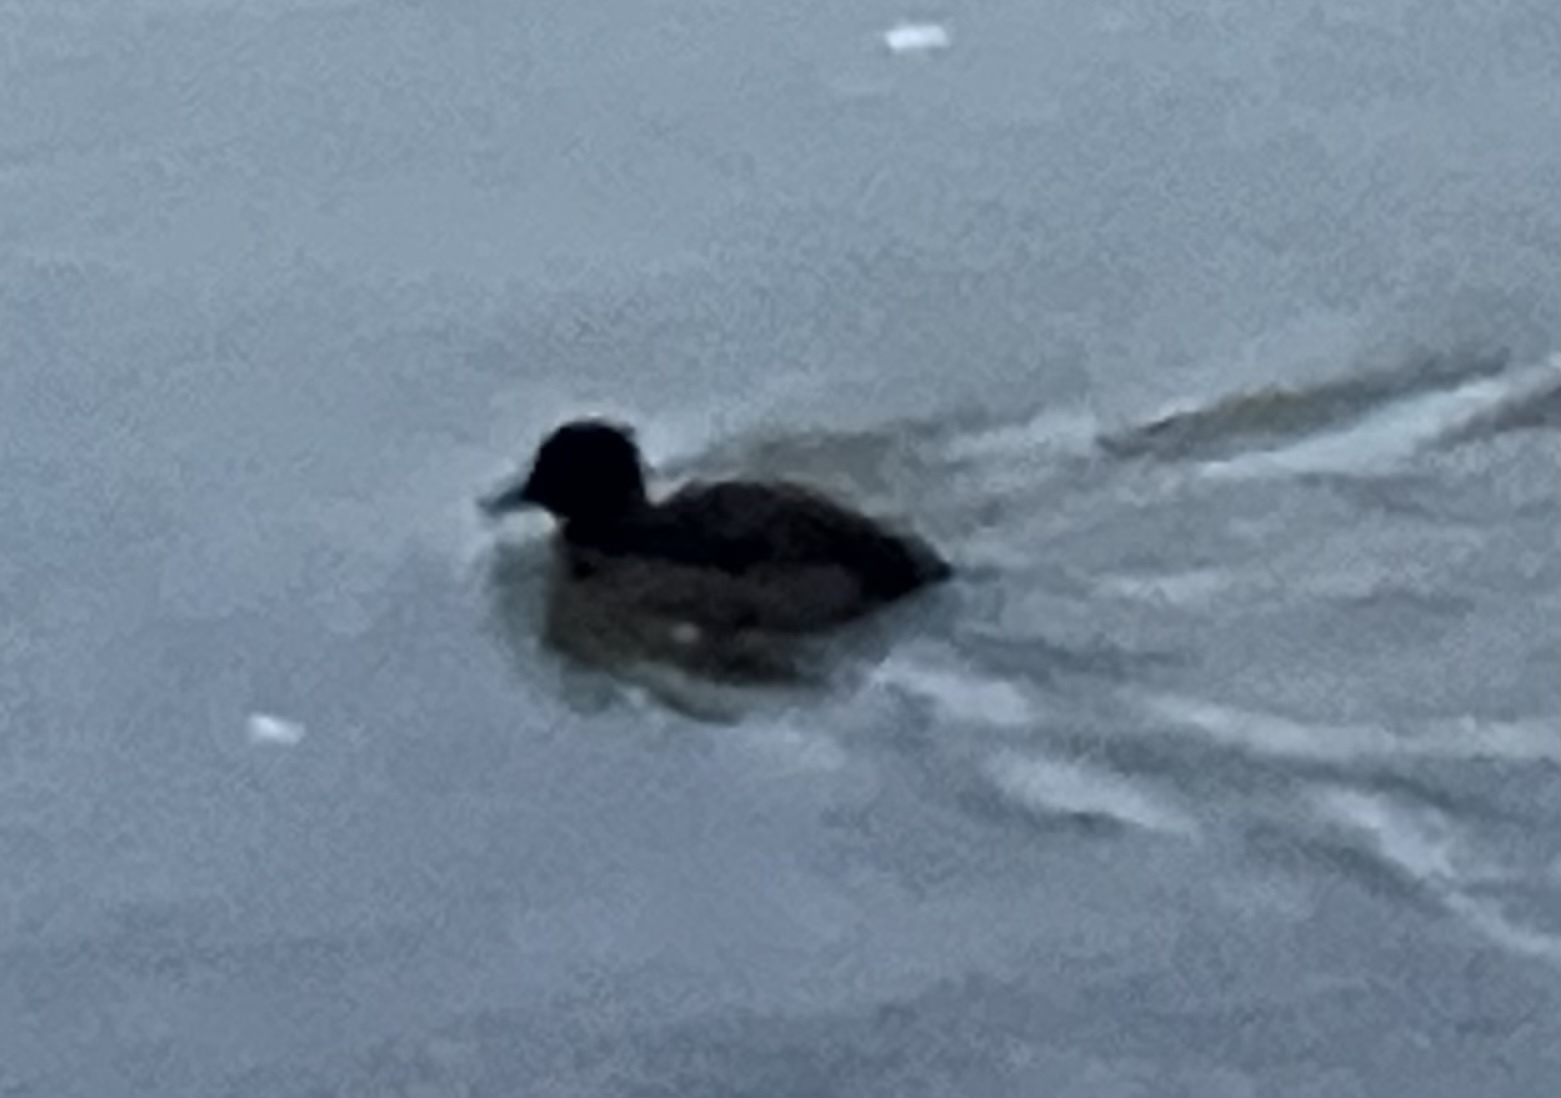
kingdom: Animalia
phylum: Chordata
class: Aves
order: Anseriformes
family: Anatidae
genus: Aythya
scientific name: Aythya fuligula
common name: Tufted duck
